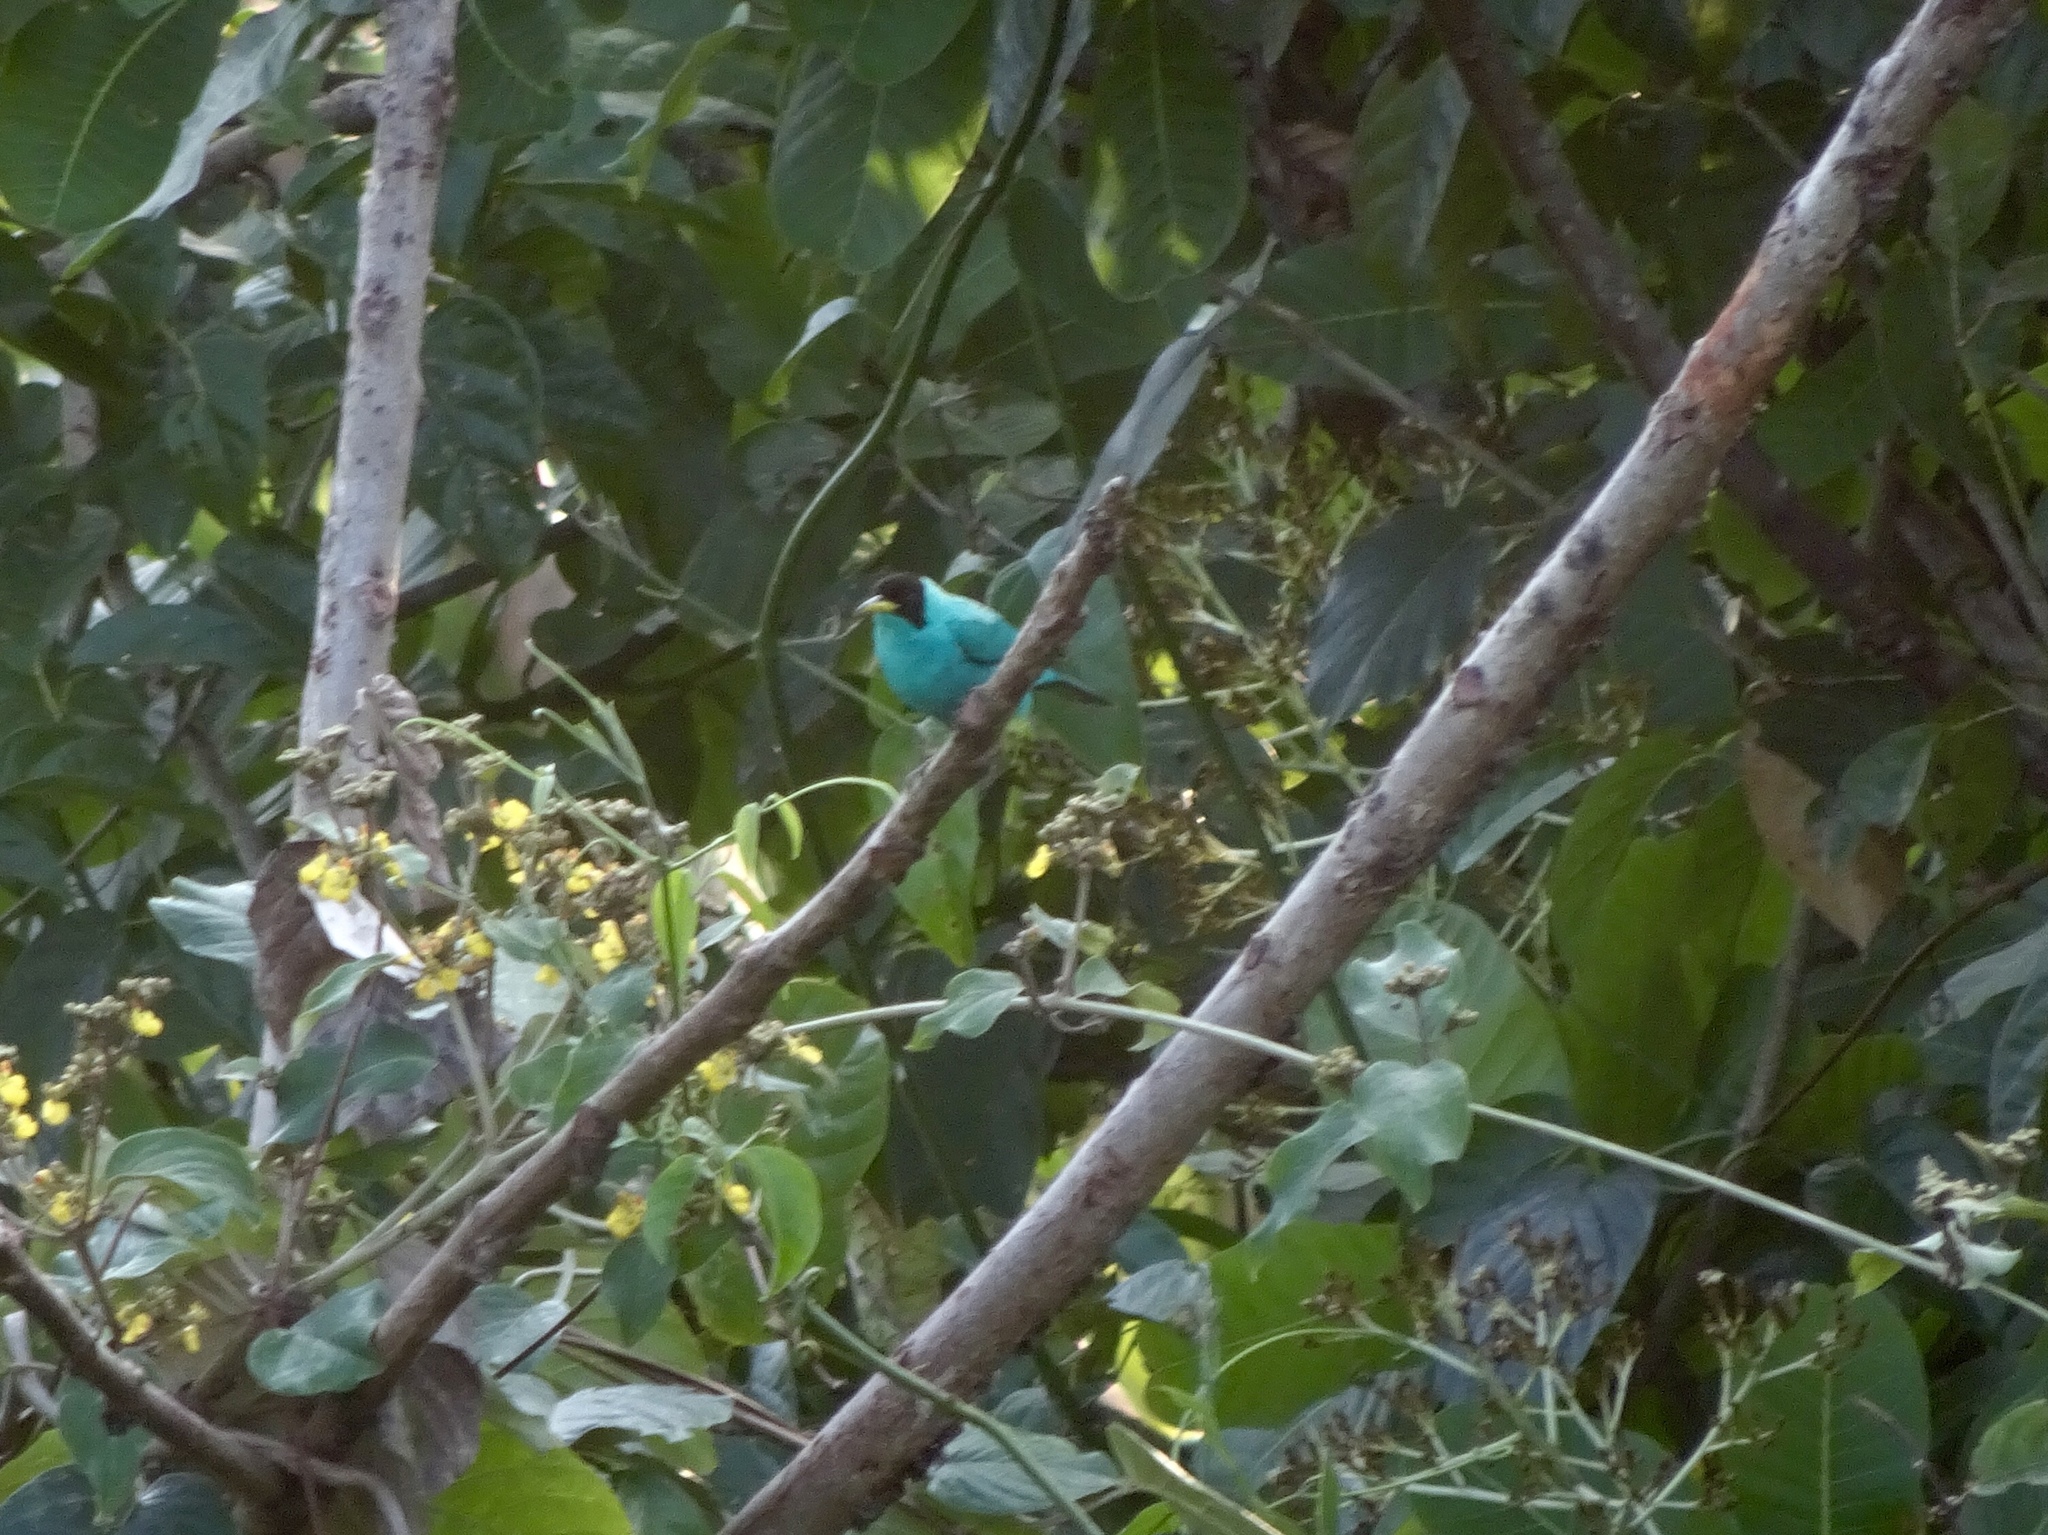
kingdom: Animalia
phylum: Chordata
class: Aves
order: Passeriformes
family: Thraupidae
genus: Chlorophanes
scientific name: Chlorophanes spiza
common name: Green honeycreeper
